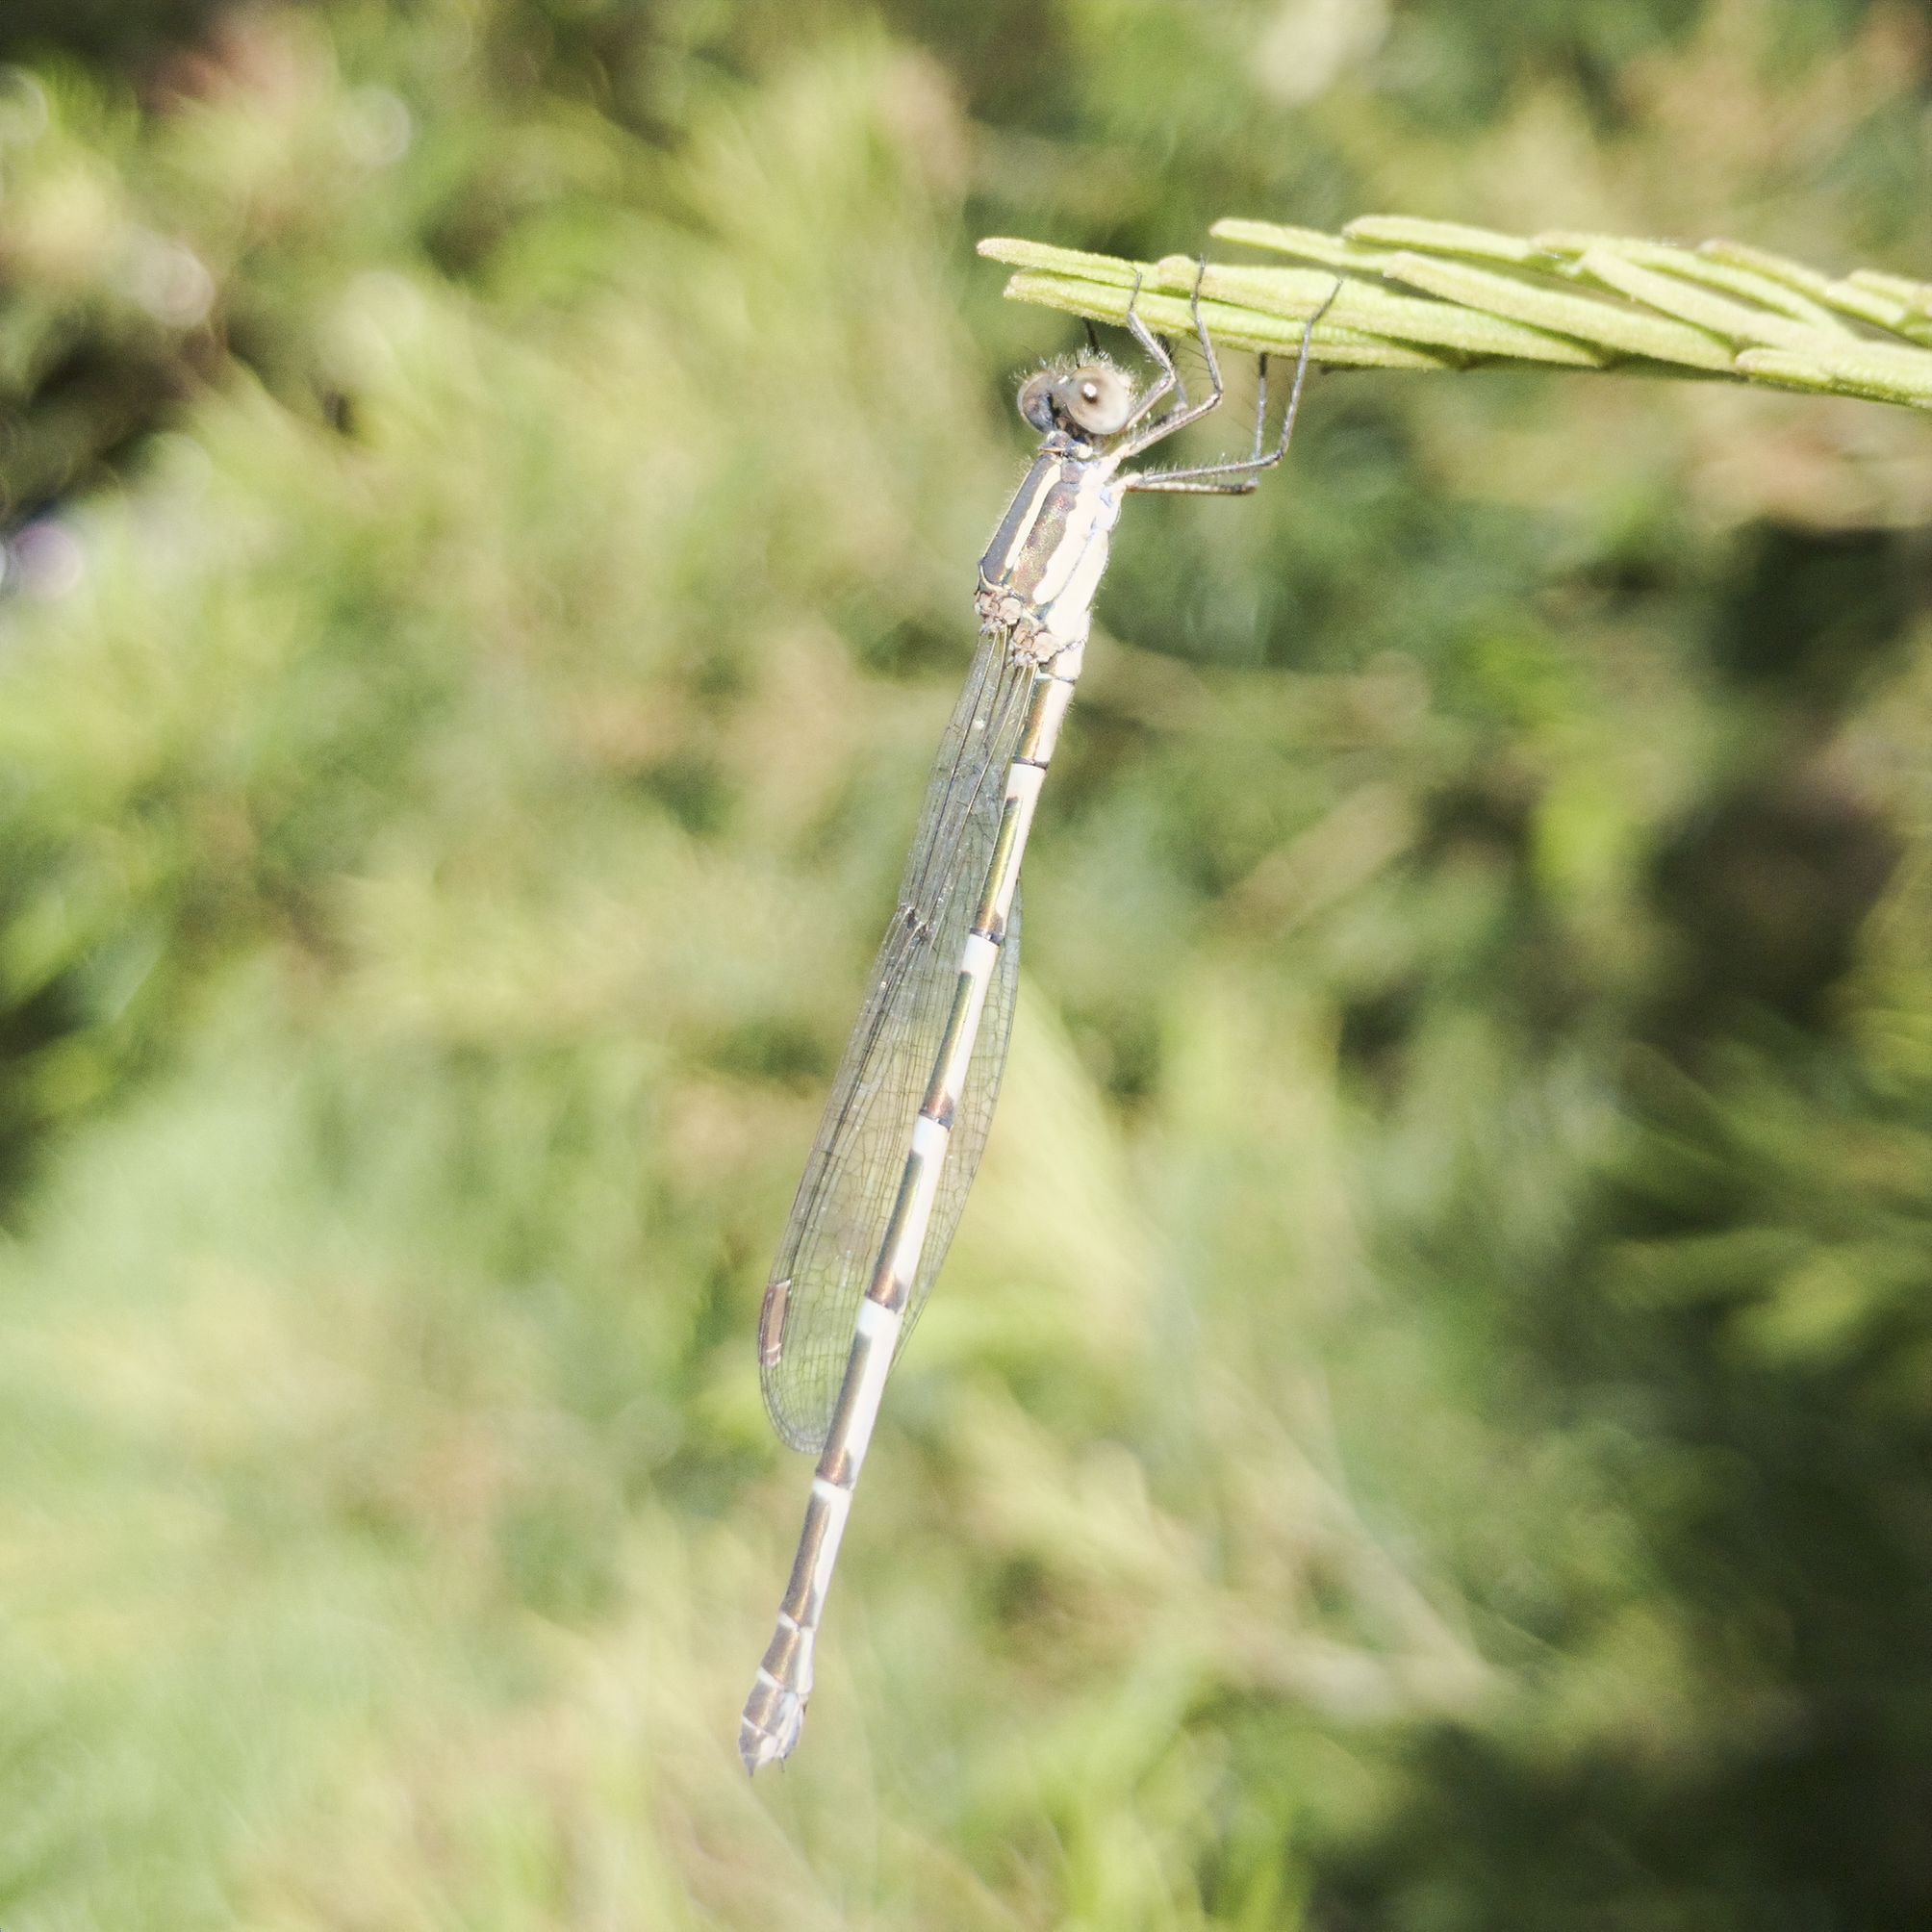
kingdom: Animalia
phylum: Arthropoda
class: Insecta
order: Odonata
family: Lestidae
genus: Austrolestes
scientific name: Austrolestes leda
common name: Wandering ringtail
